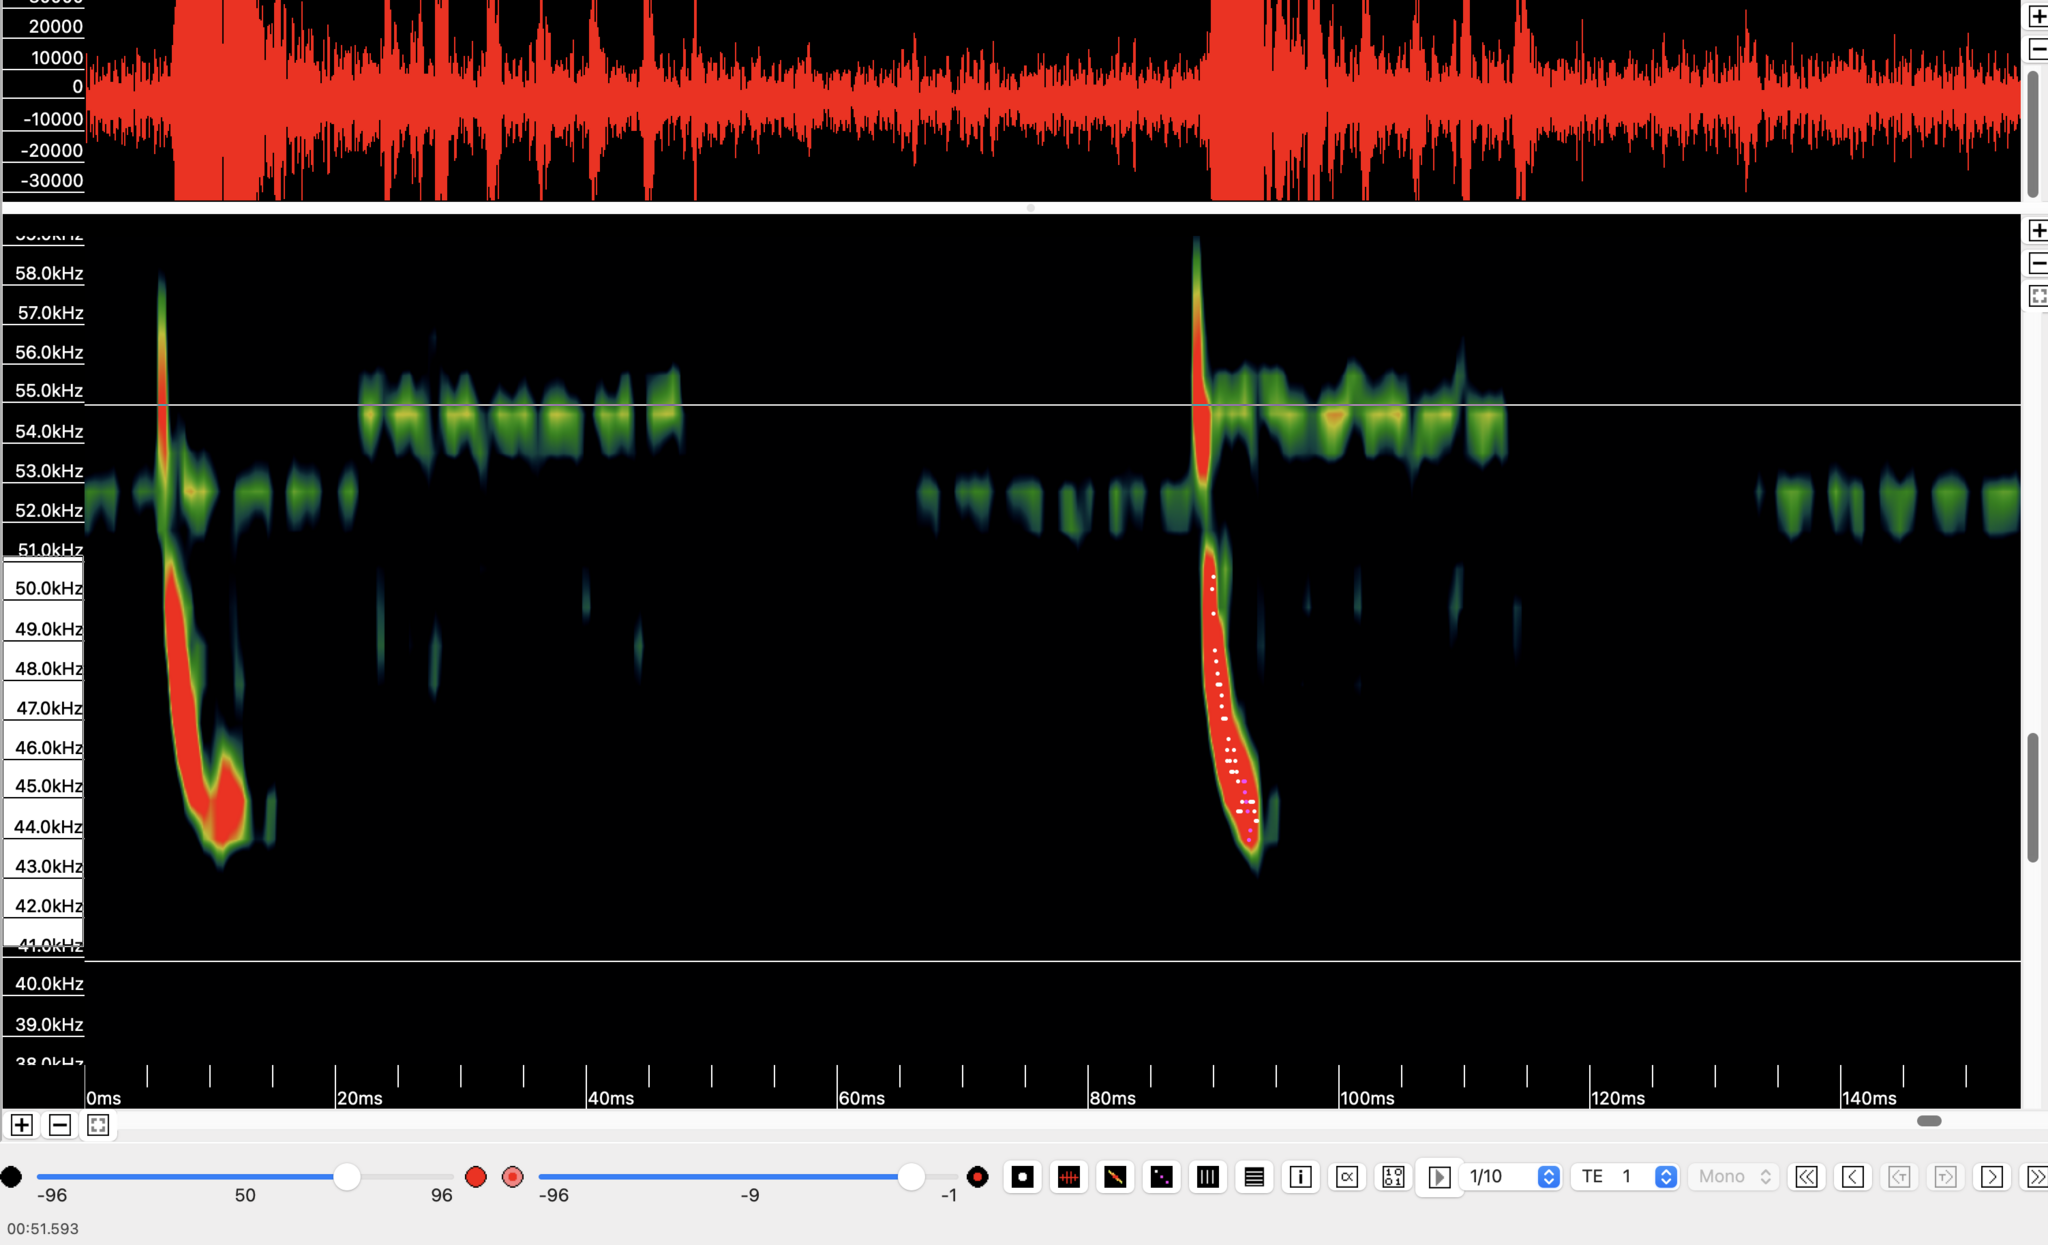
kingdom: Animalia
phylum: Chordata
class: Mammalia
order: Chiroptera
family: Vespertilionidae
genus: Pipistrellus
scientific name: Pipistrellus pipistrellus
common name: Common pipistrelle
